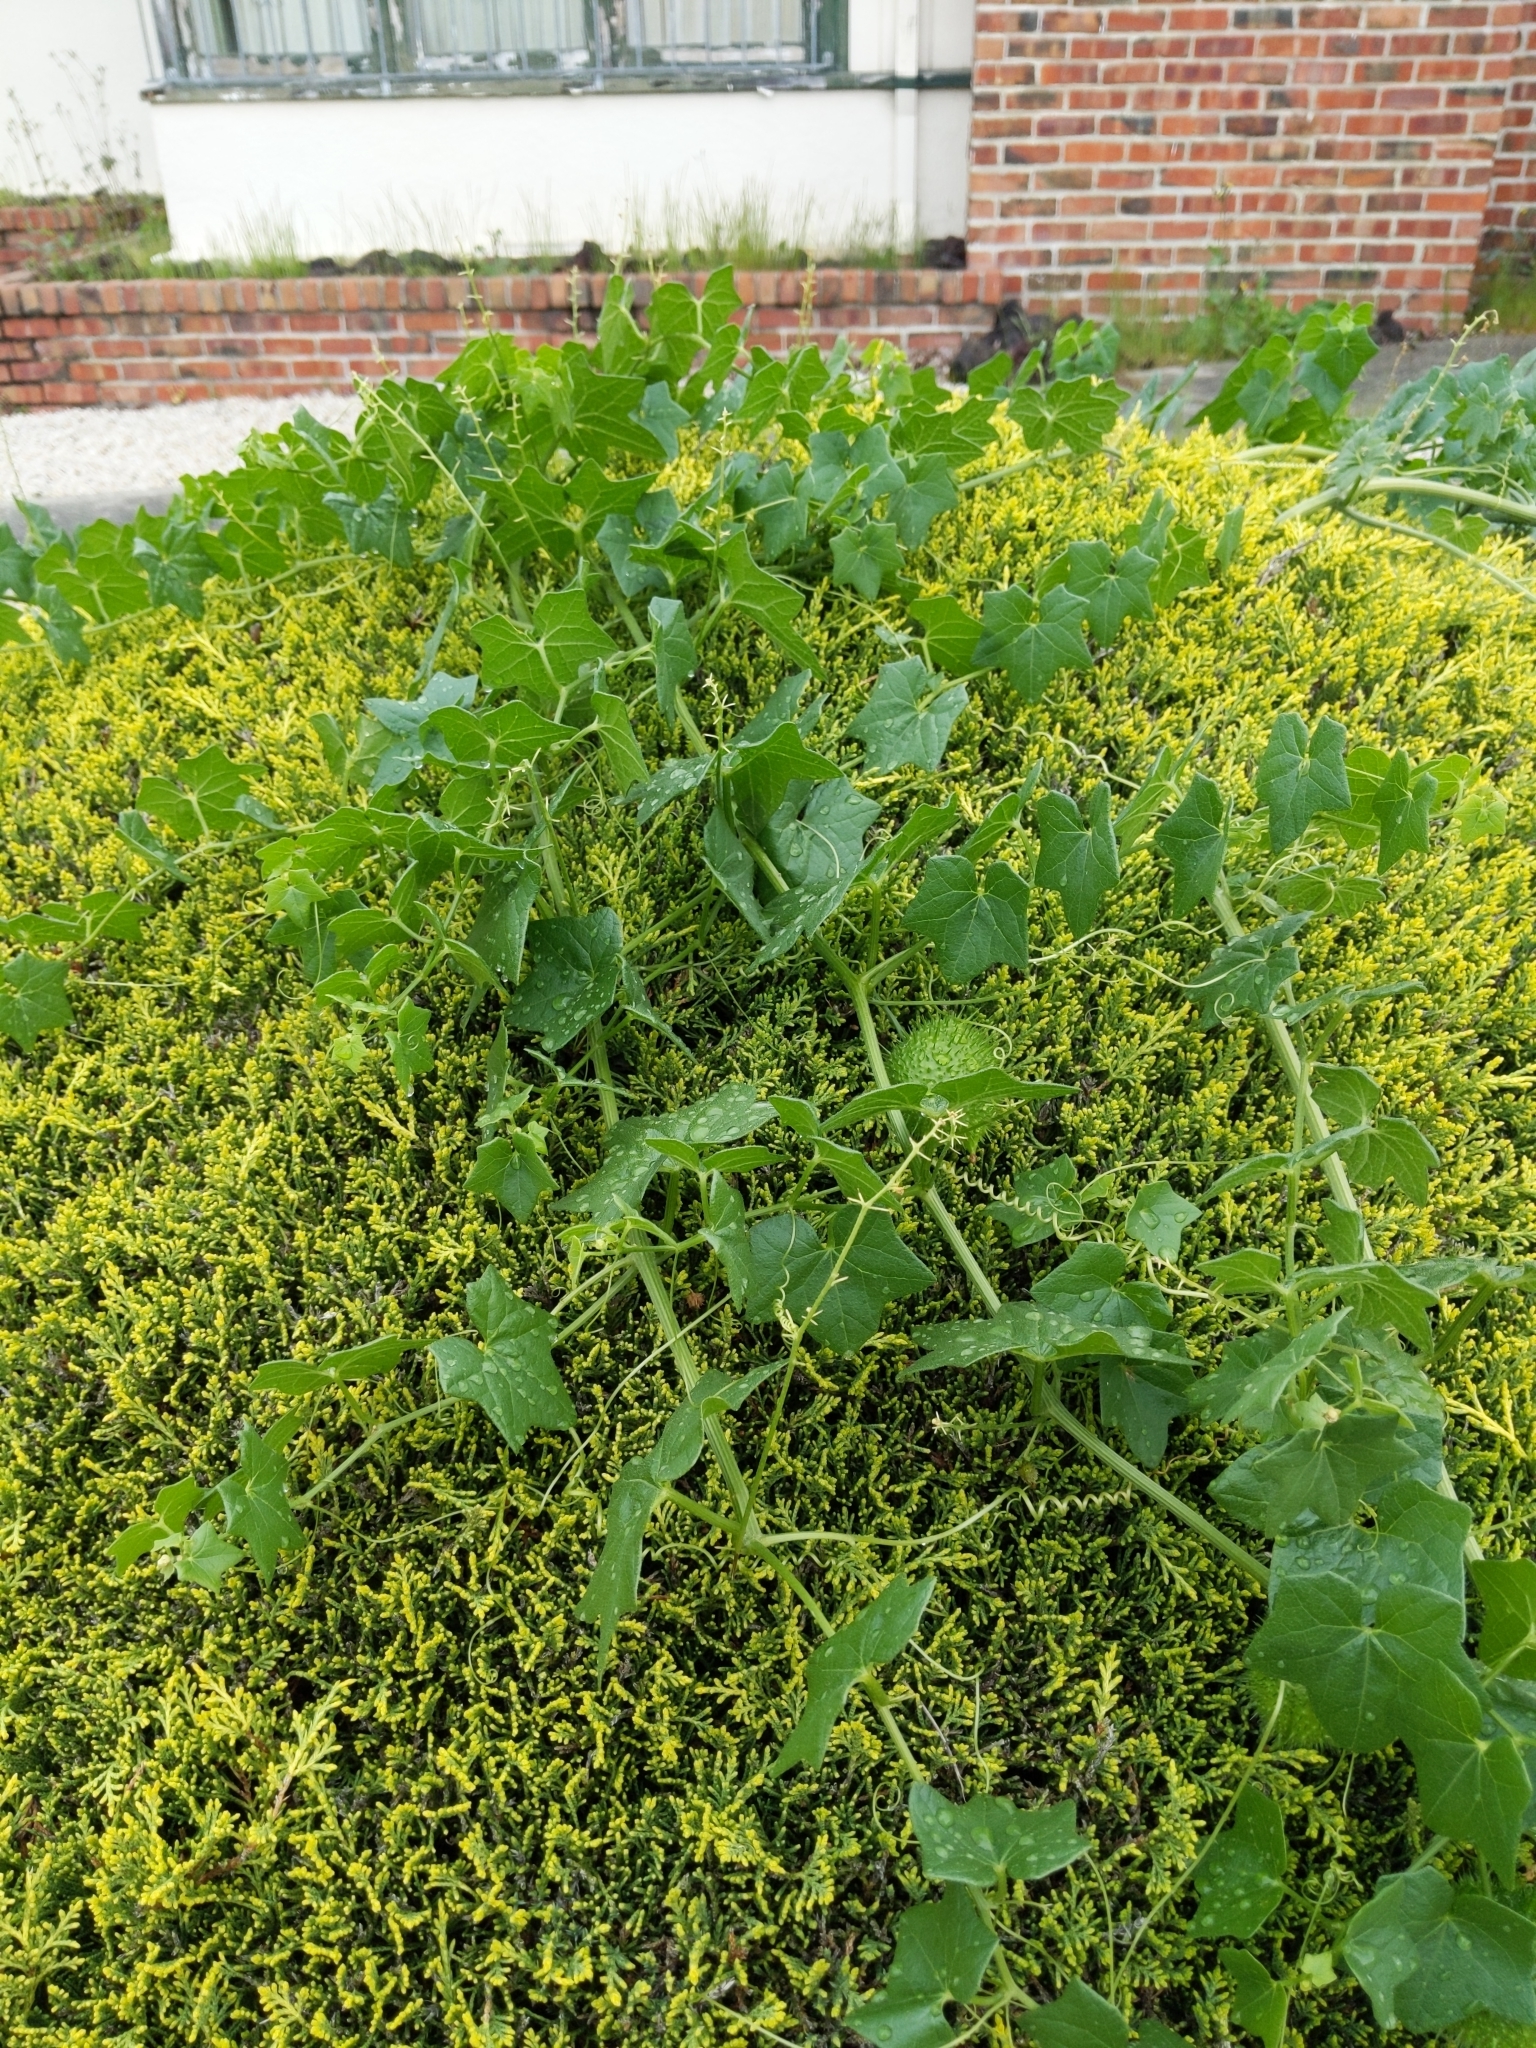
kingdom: Plantae
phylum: Tracheophyta
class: Magnoliopsida
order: Cucurbitales
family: Cucurbitaceae
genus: Marah
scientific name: Marah fabacea
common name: California manroot
